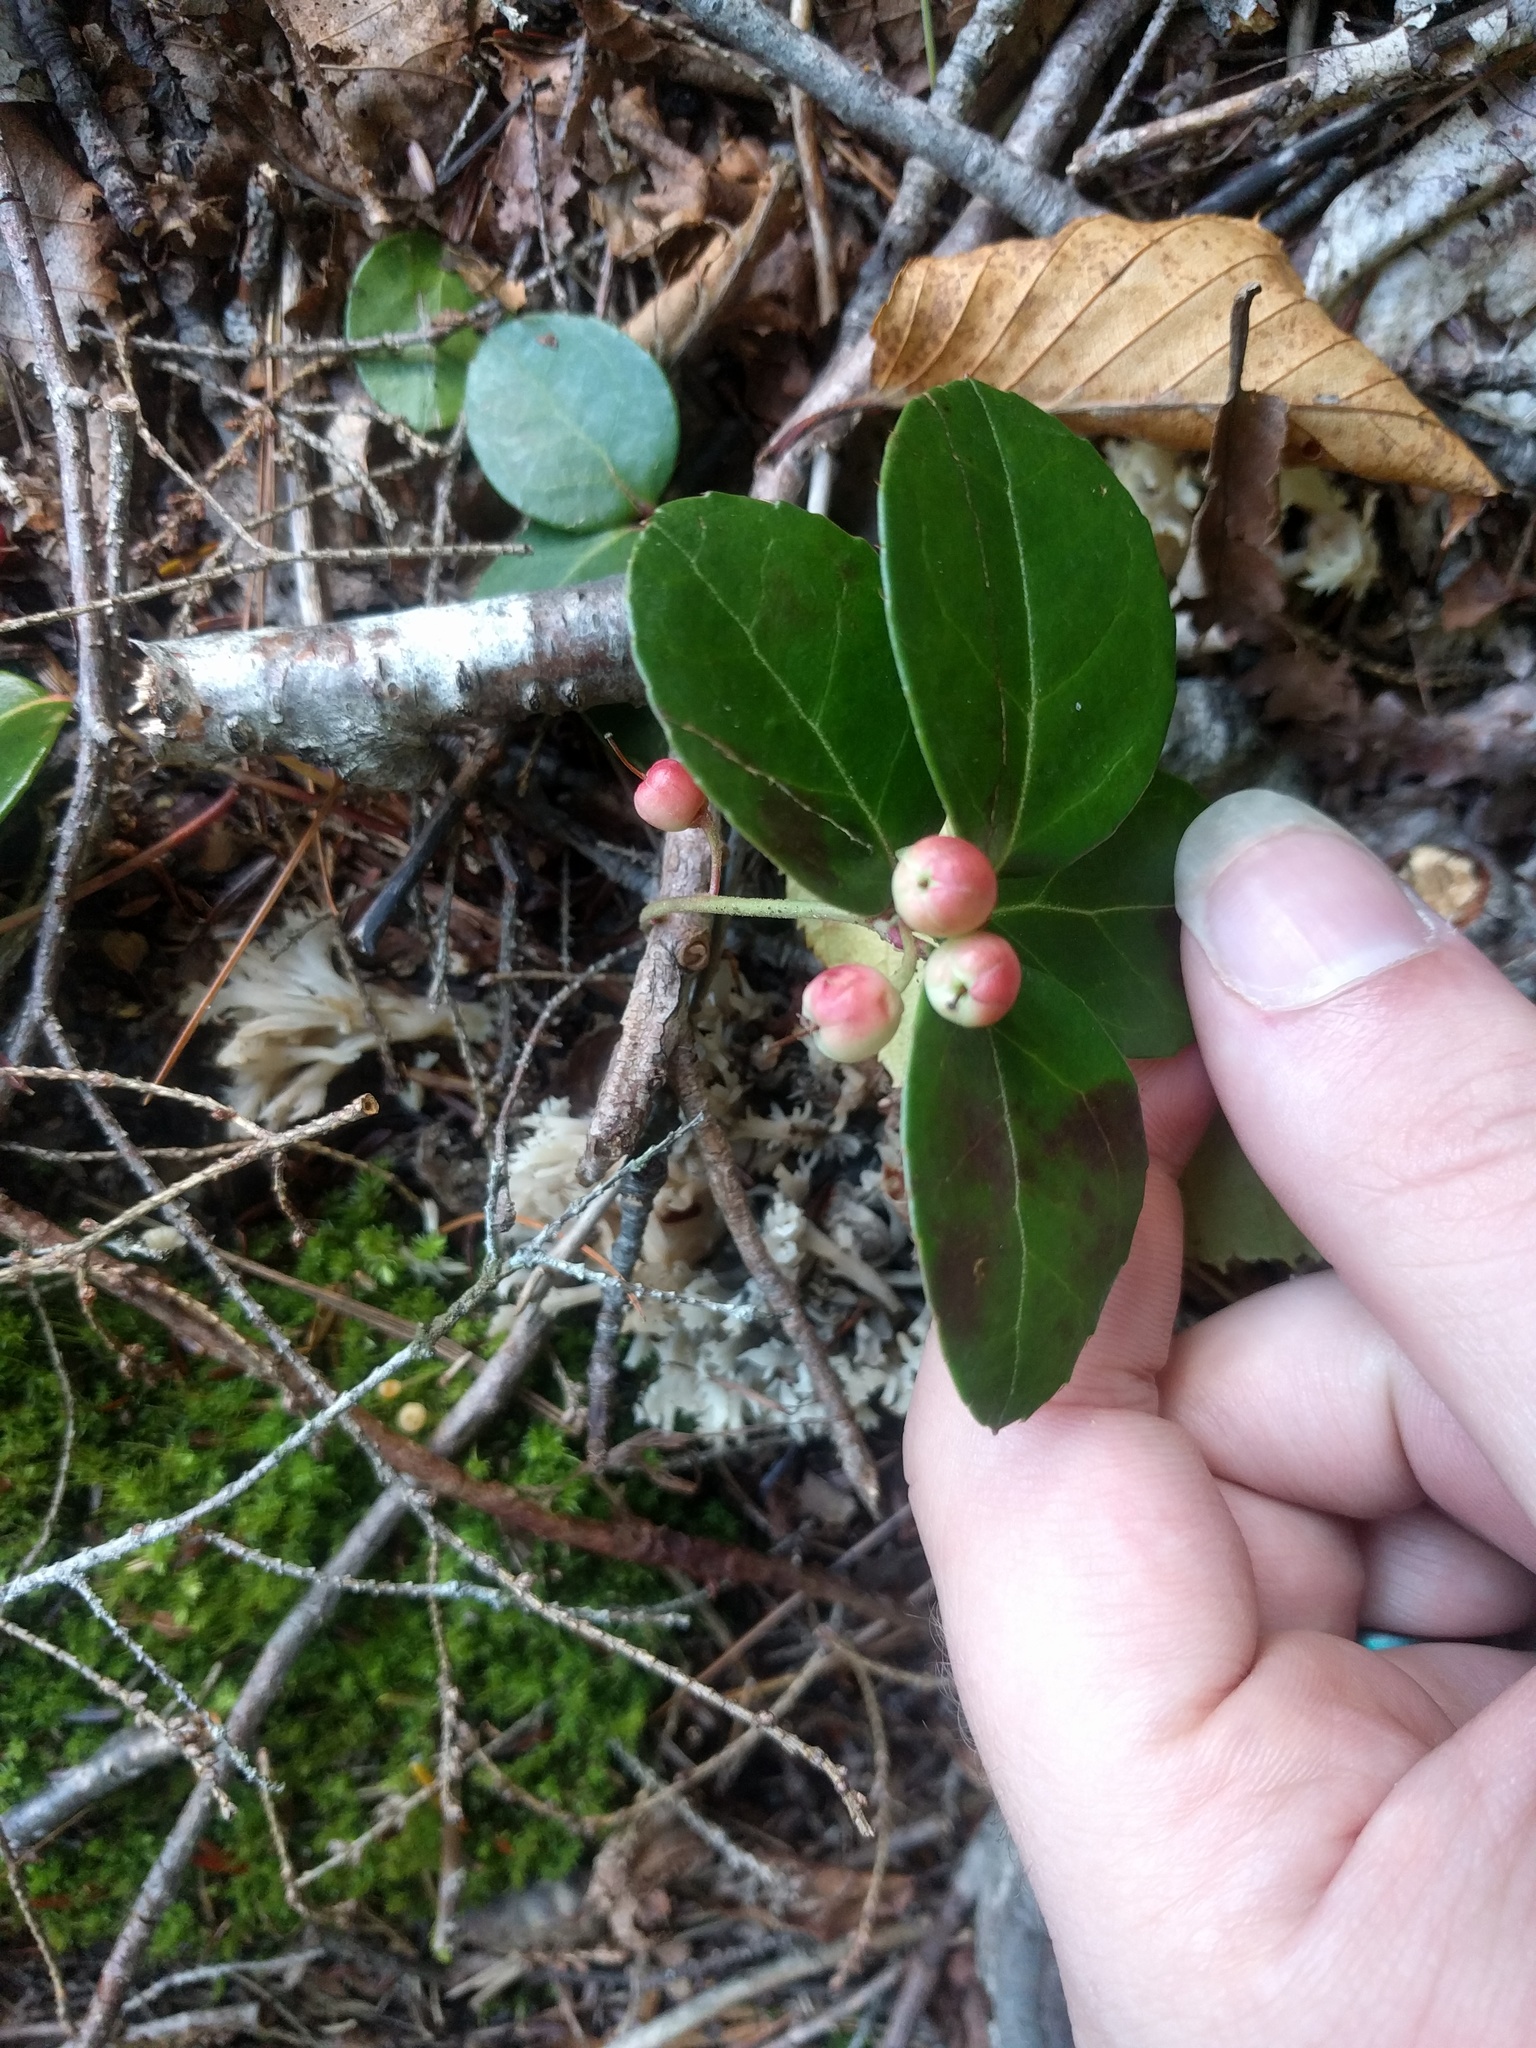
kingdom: Plantae
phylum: Tracheophyta
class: Magnoliopsida
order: Ericales
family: Ericaceae
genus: Gaultheria
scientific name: Gaultheria procumbens
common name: Checkerberry
